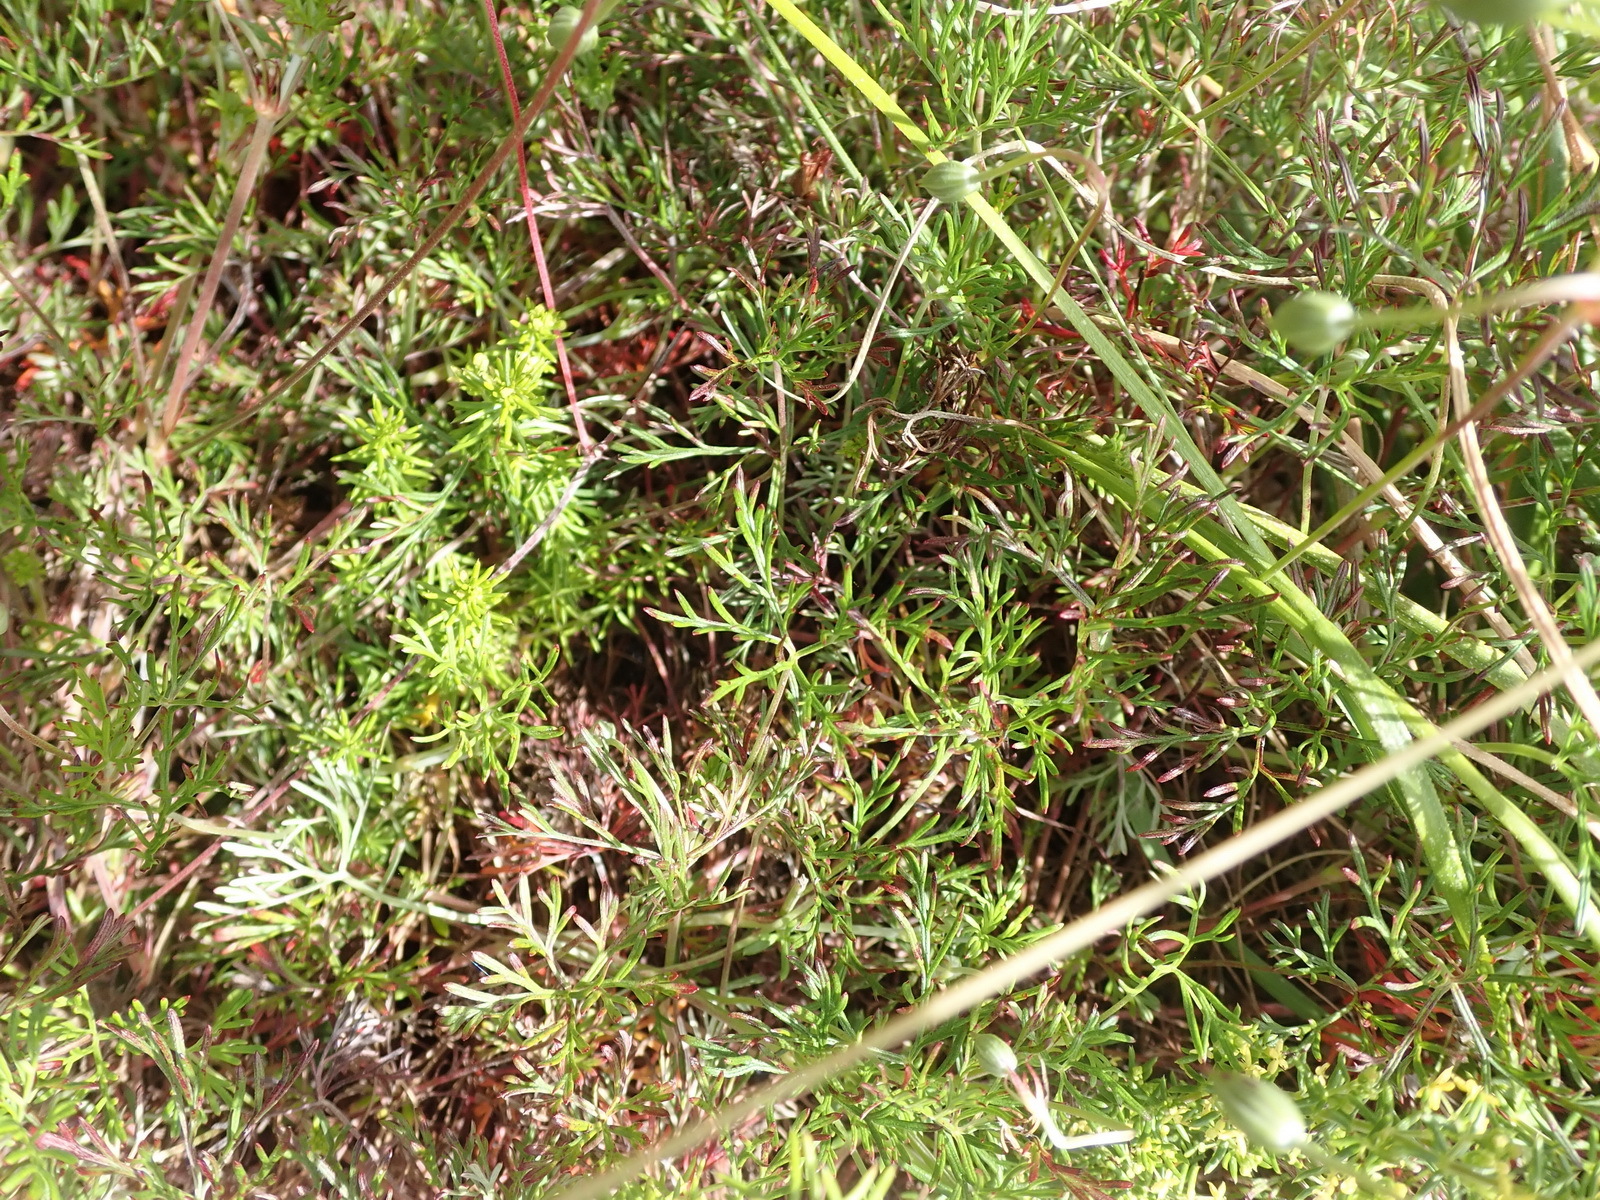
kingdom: Plantae
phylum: Tracheophyta
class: Magnoliopsida
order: Geraniales
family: Geraniaceae
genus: Geranium
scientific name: Geranium incanum
